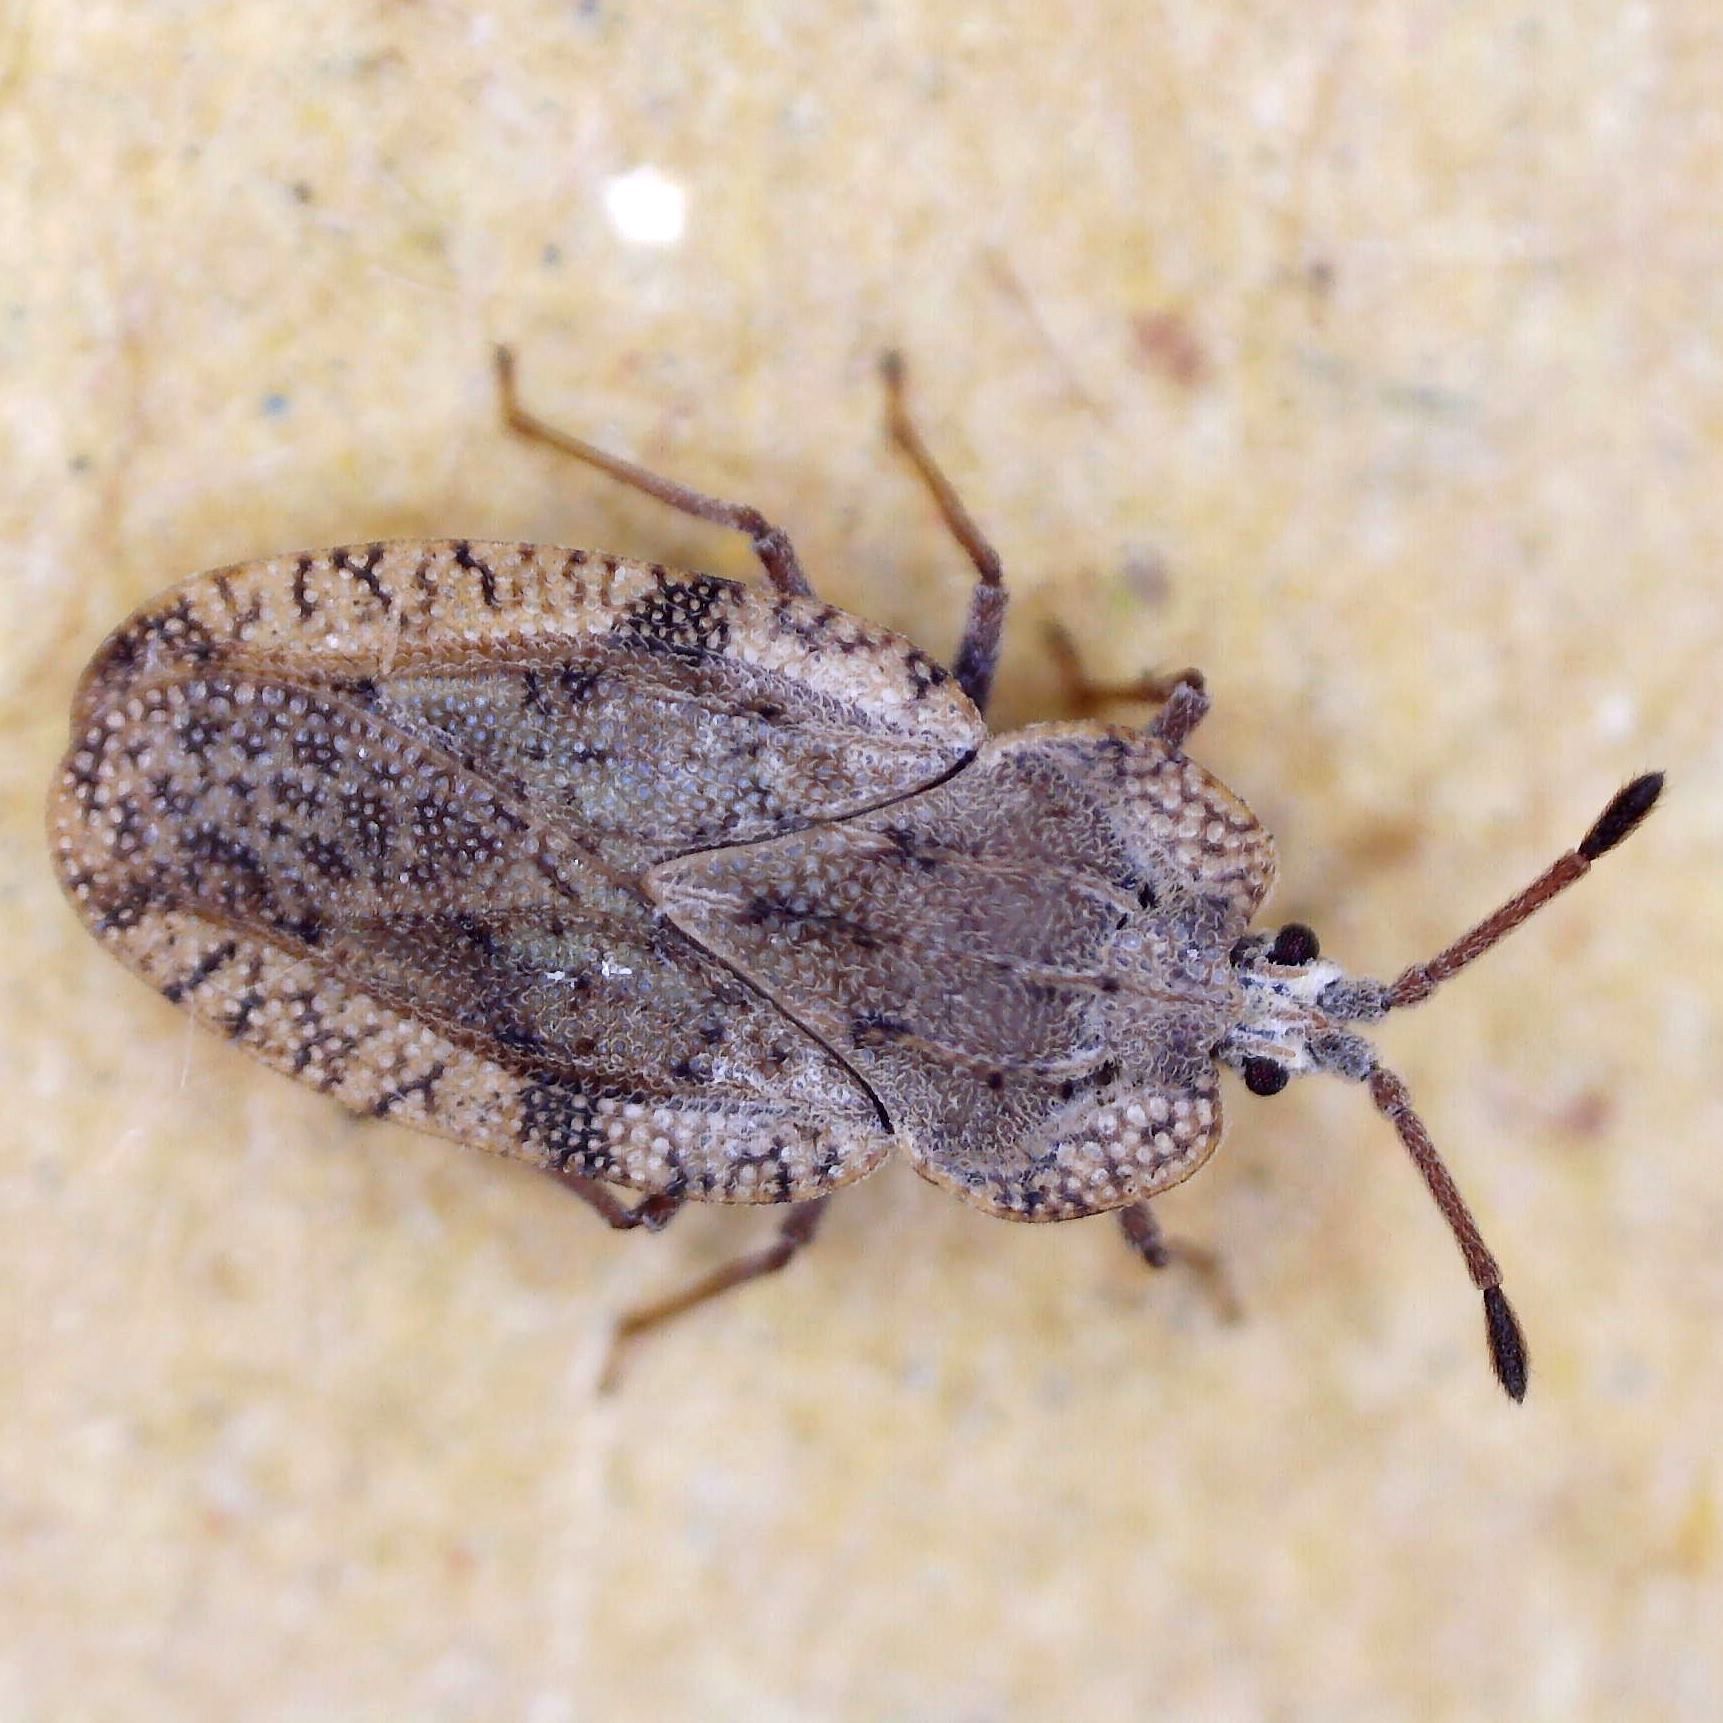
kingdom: Animalia
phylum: Arthropoda
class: Insecta
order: Hemiptera
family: Tingidae
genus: Tingis
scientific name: Tingis ampliata
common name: Creeping thistle lacebug
